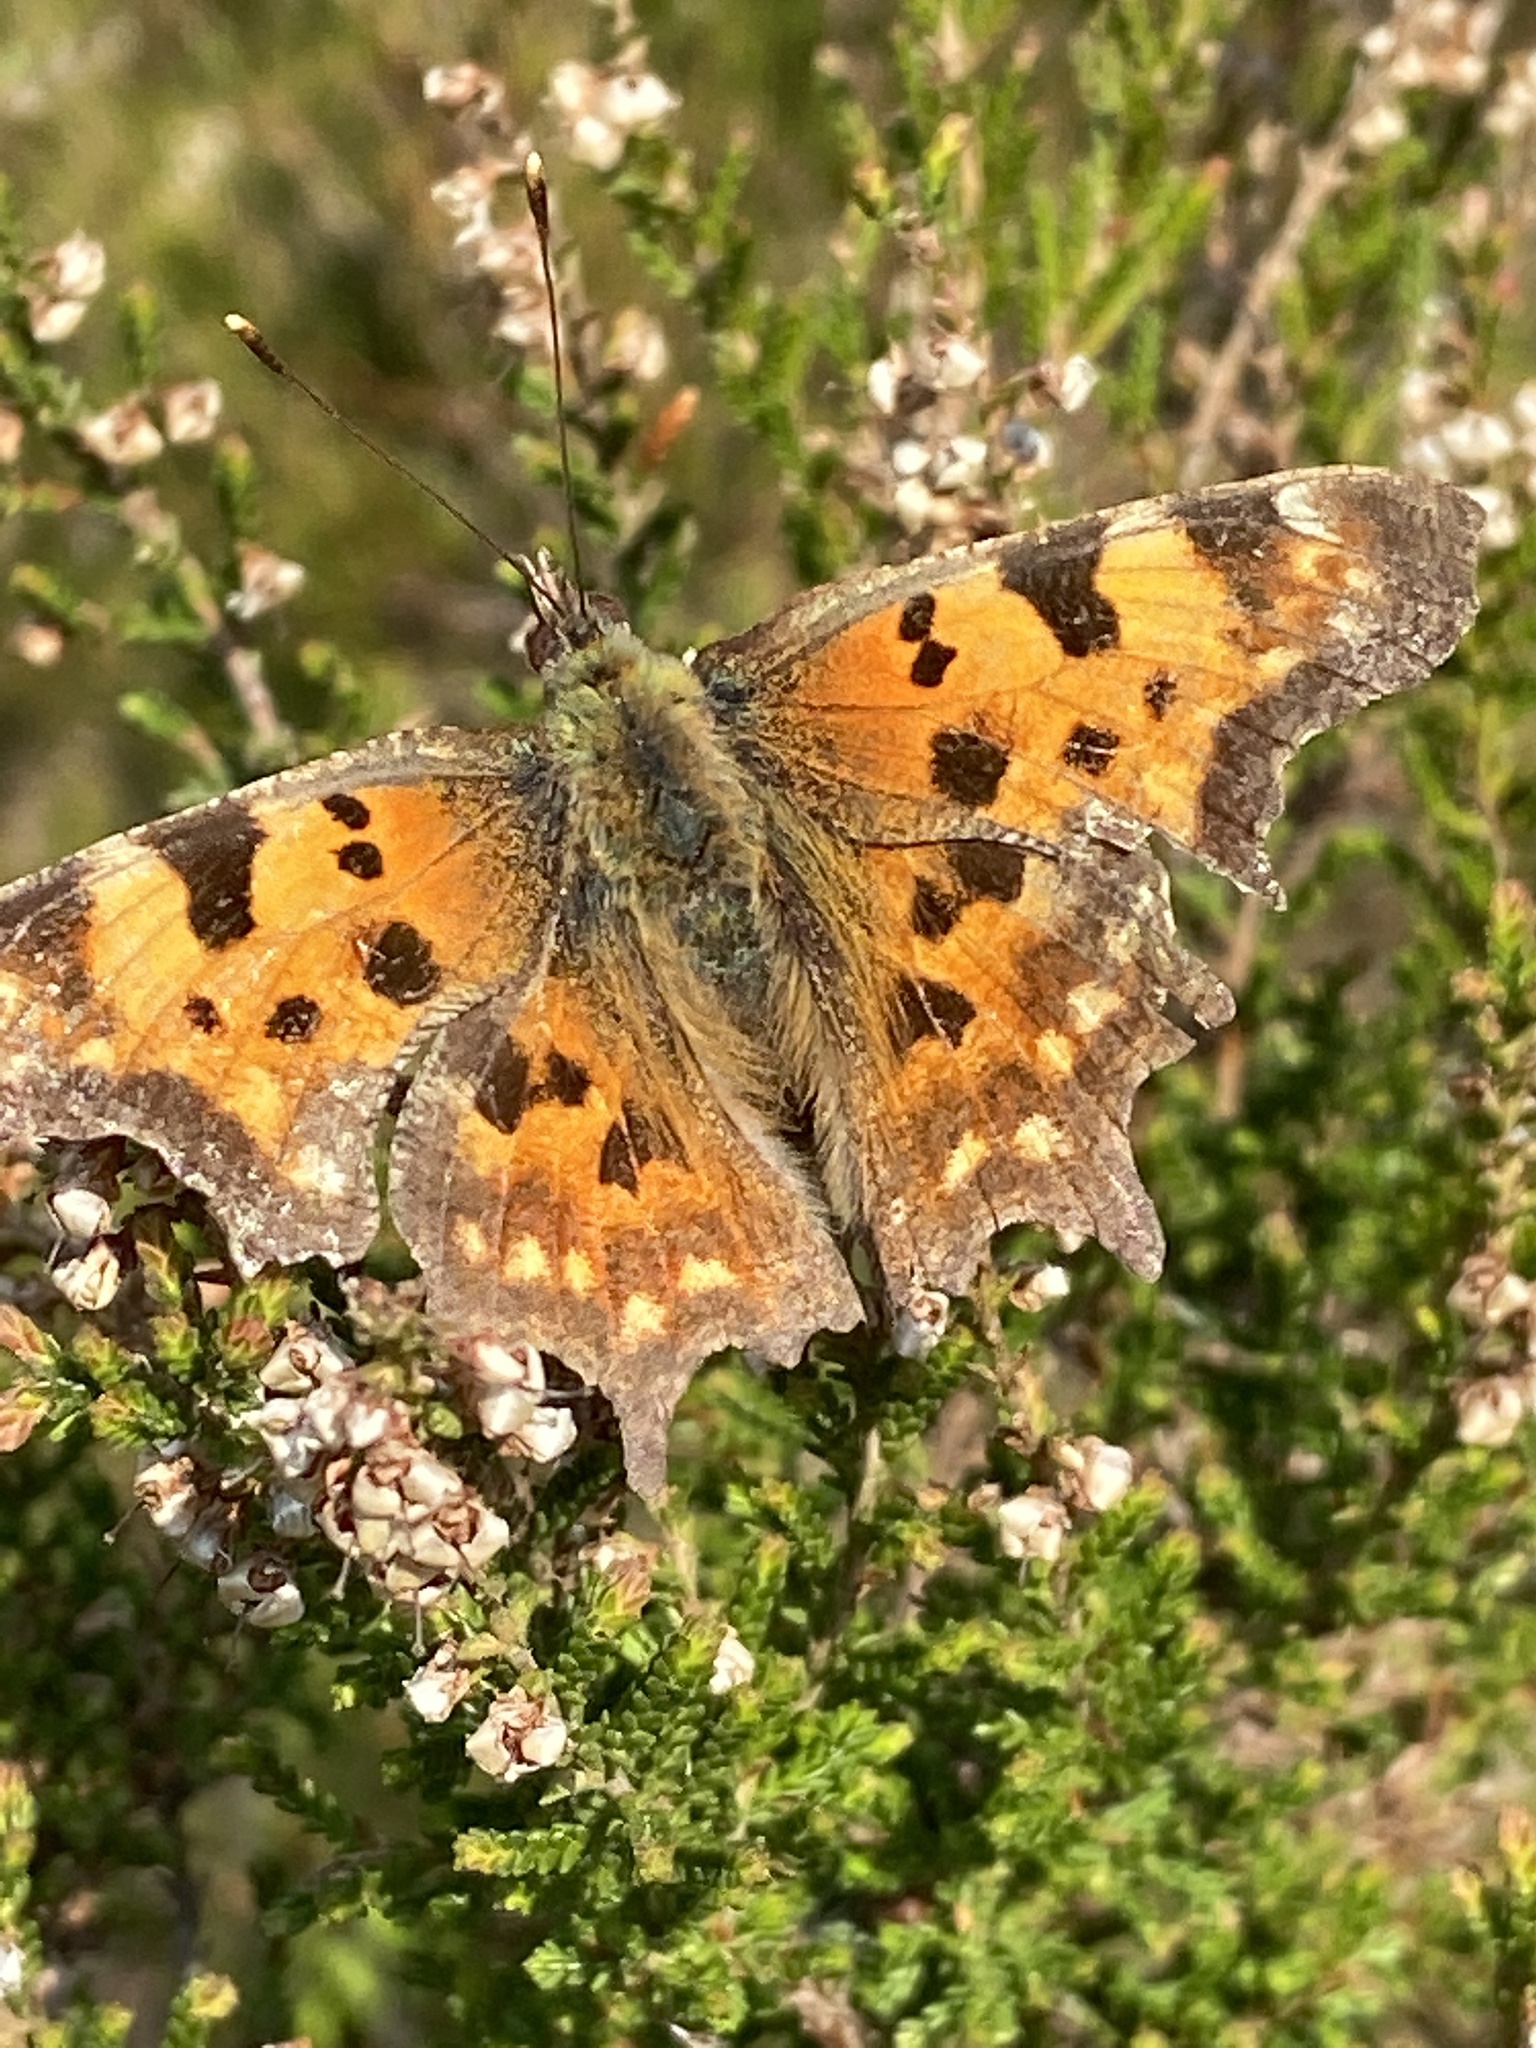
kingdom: Animalia
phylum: Arthropoda
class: Insecta
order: Lepidoptera
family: Nymphalidae
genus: Polygonia
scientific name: Polygonia c-album
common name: Comma
